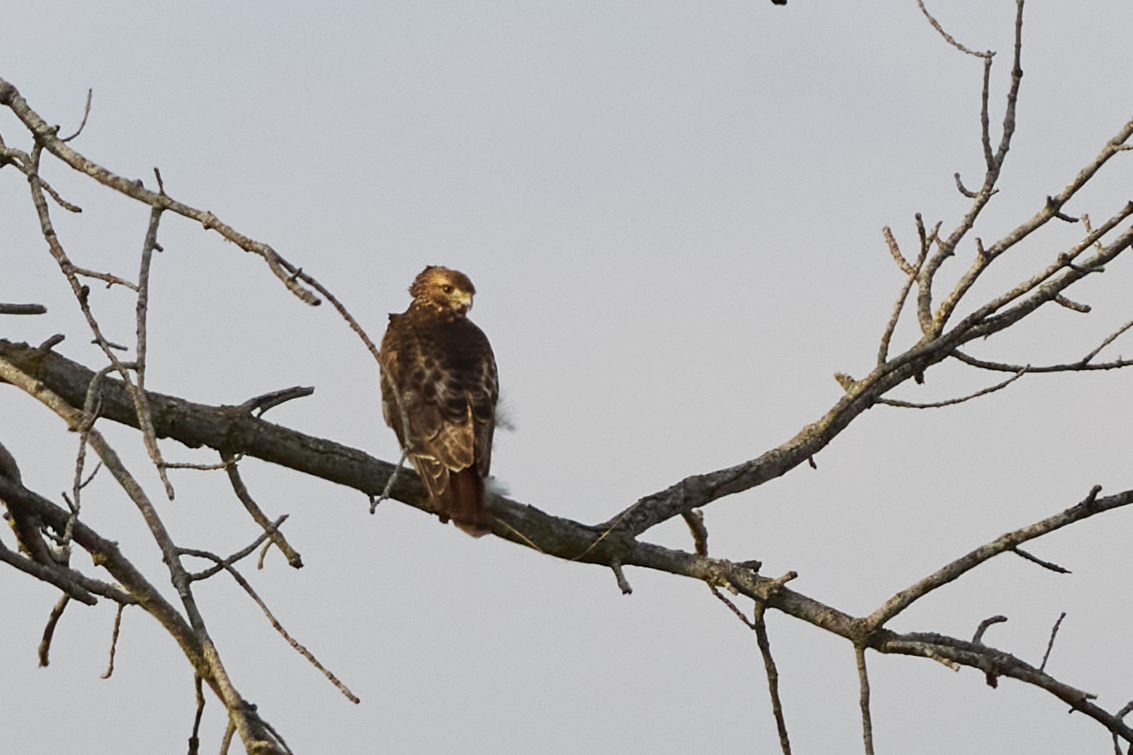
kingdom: Animalia
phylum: Chordata
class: Aves
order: Accipitriformes
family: Accipitridae
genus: Buteo
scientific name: Buteo jamaicensis
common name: Red-tailed hawk
